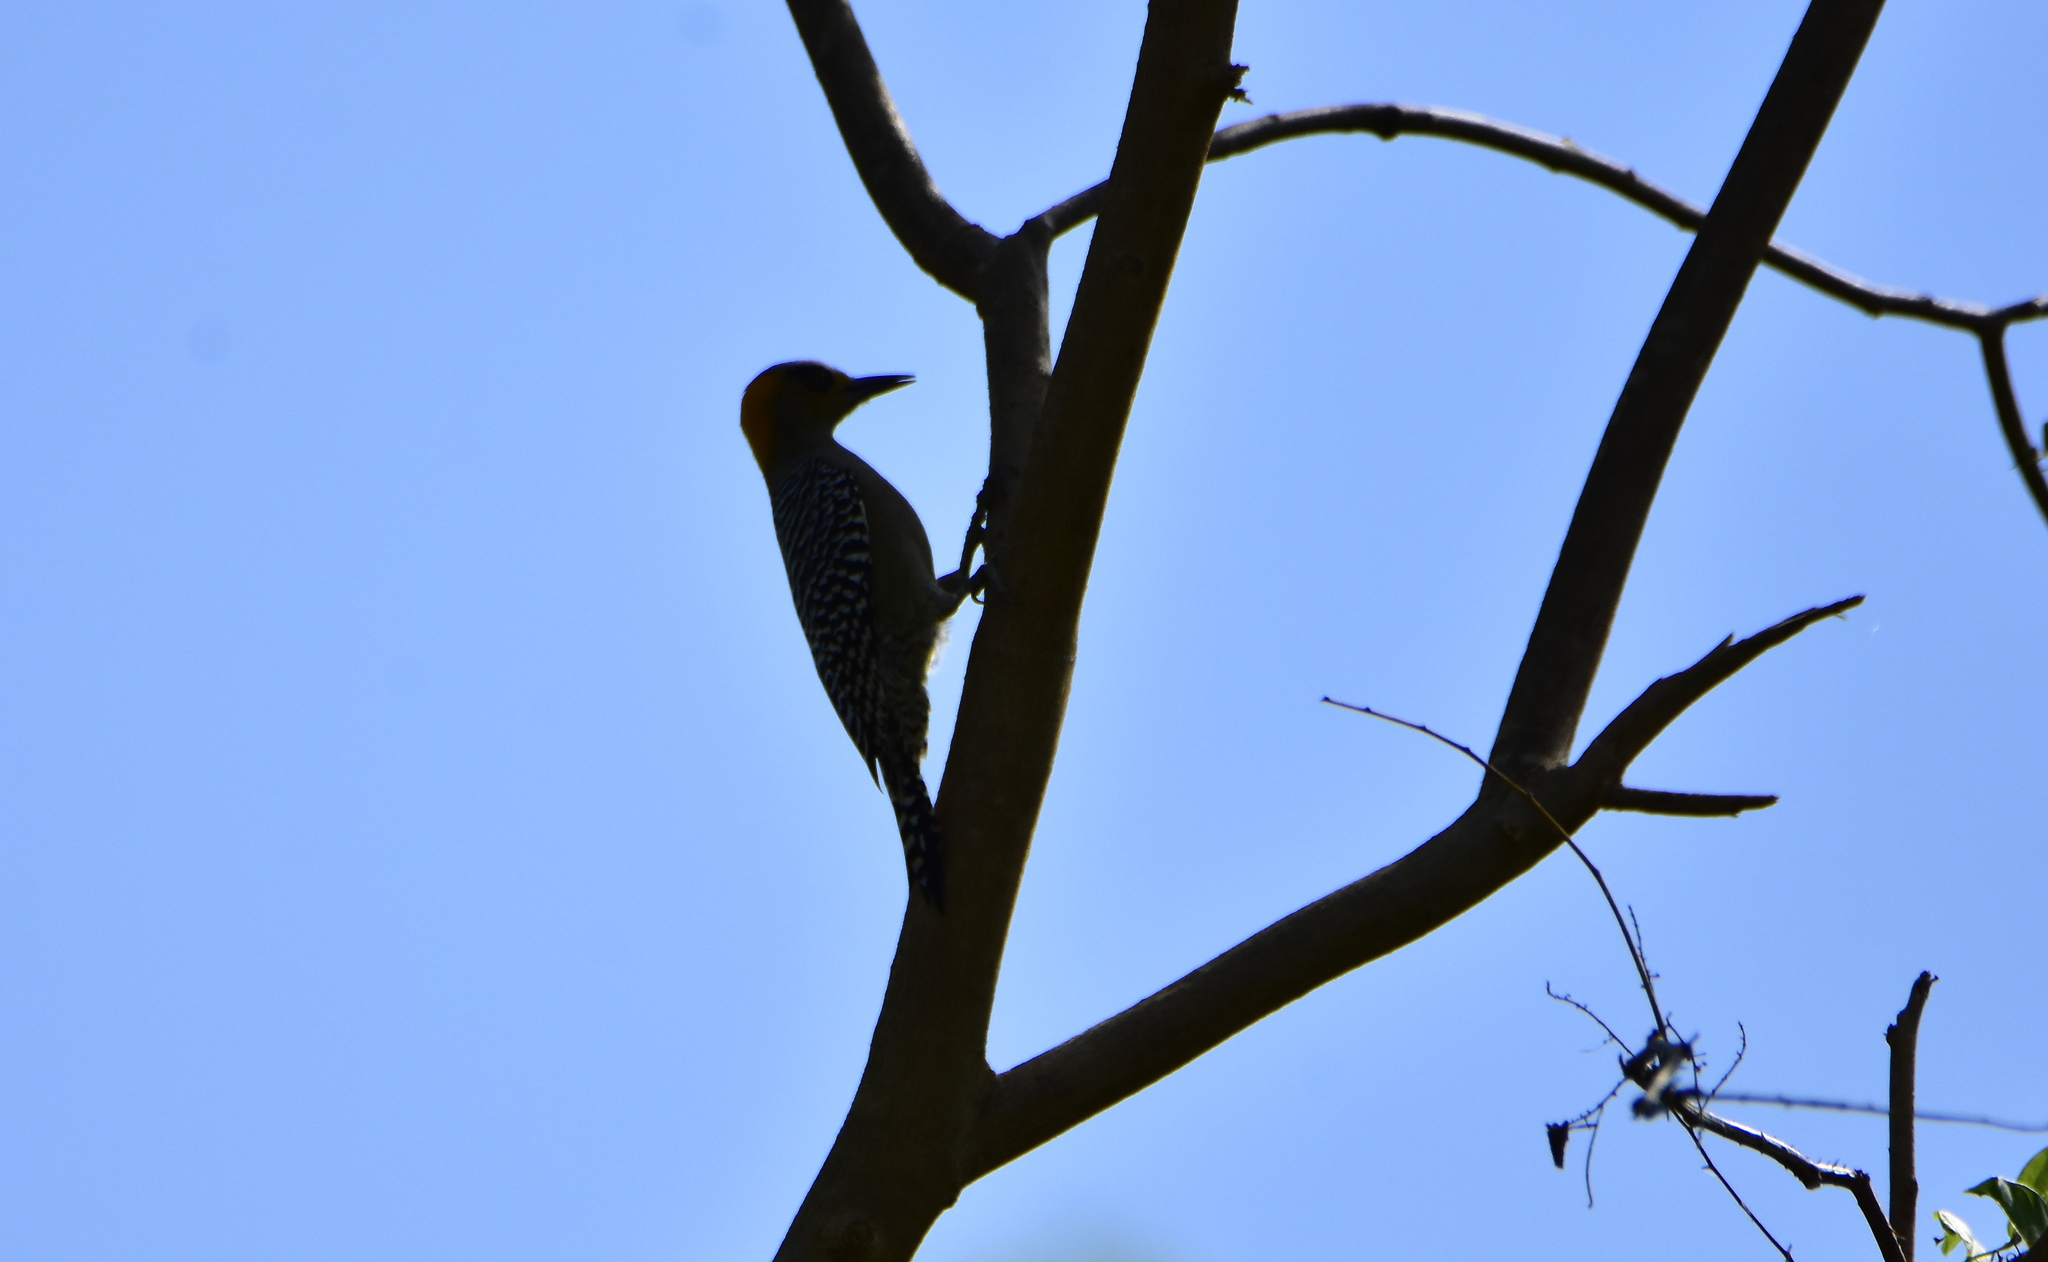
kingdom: Animalia
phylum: Chordata
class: Aves
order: Piciformes
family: Picidae
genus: Melanerpes
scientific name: Melanerpes chrysogenys
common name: Golden-cheeked woodpecker
